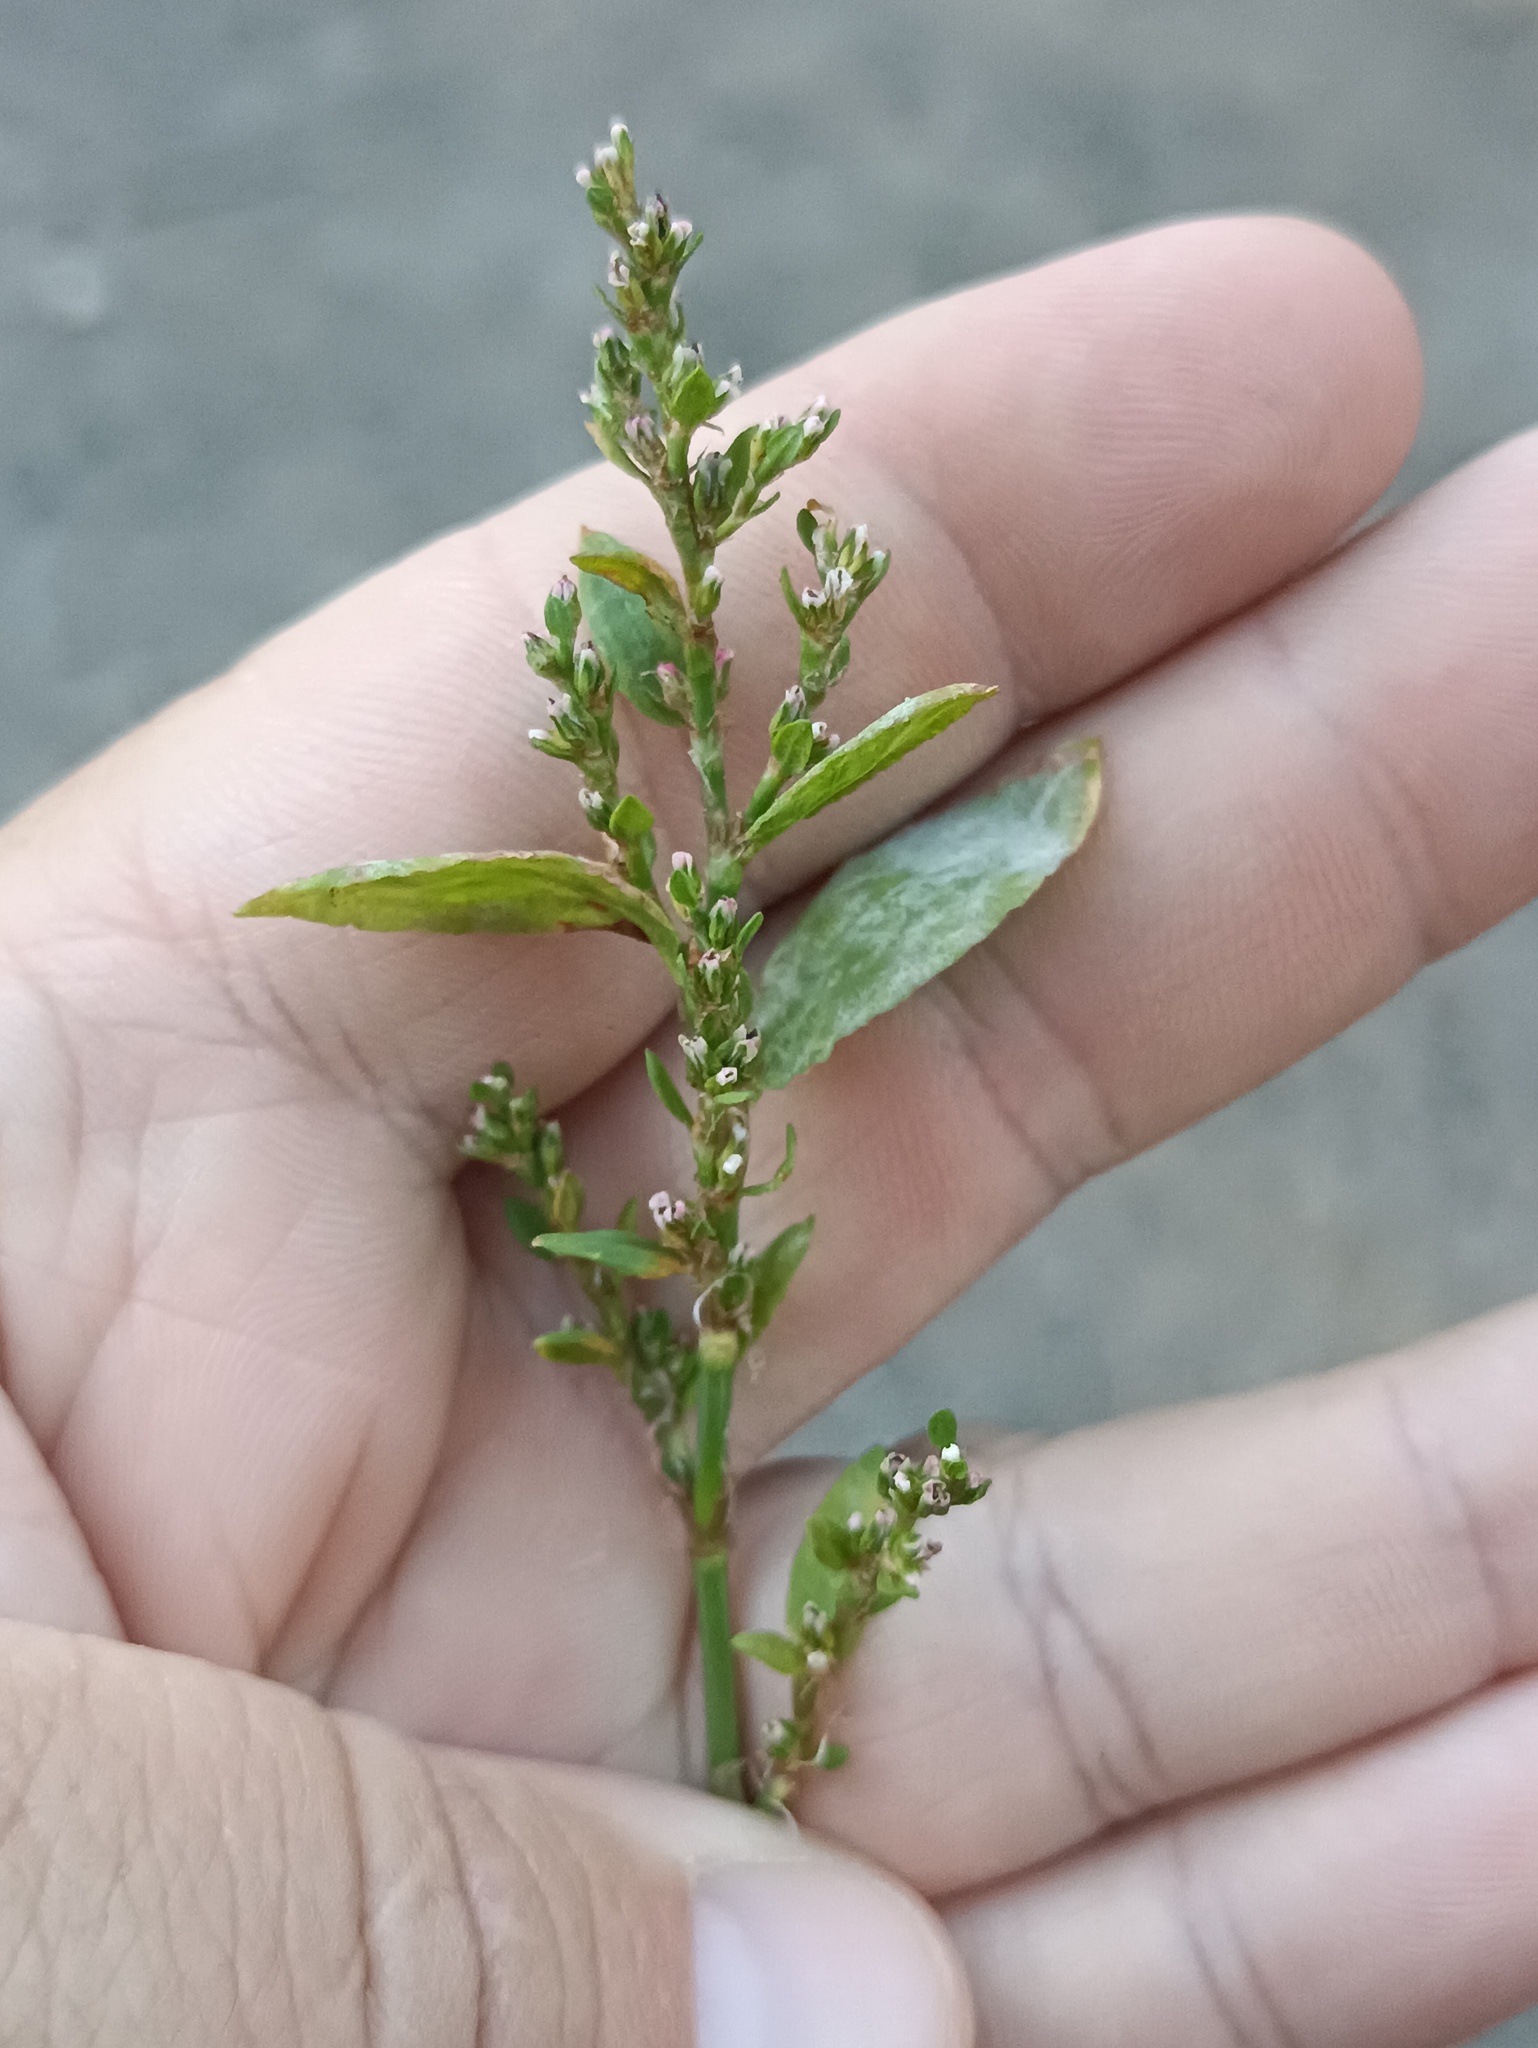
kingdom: Plantae
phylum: Tracheophyta
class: Magnoliopsida
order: Caryophyllales
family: Polygonaceae
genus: Polygonum
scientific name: Polygonum
